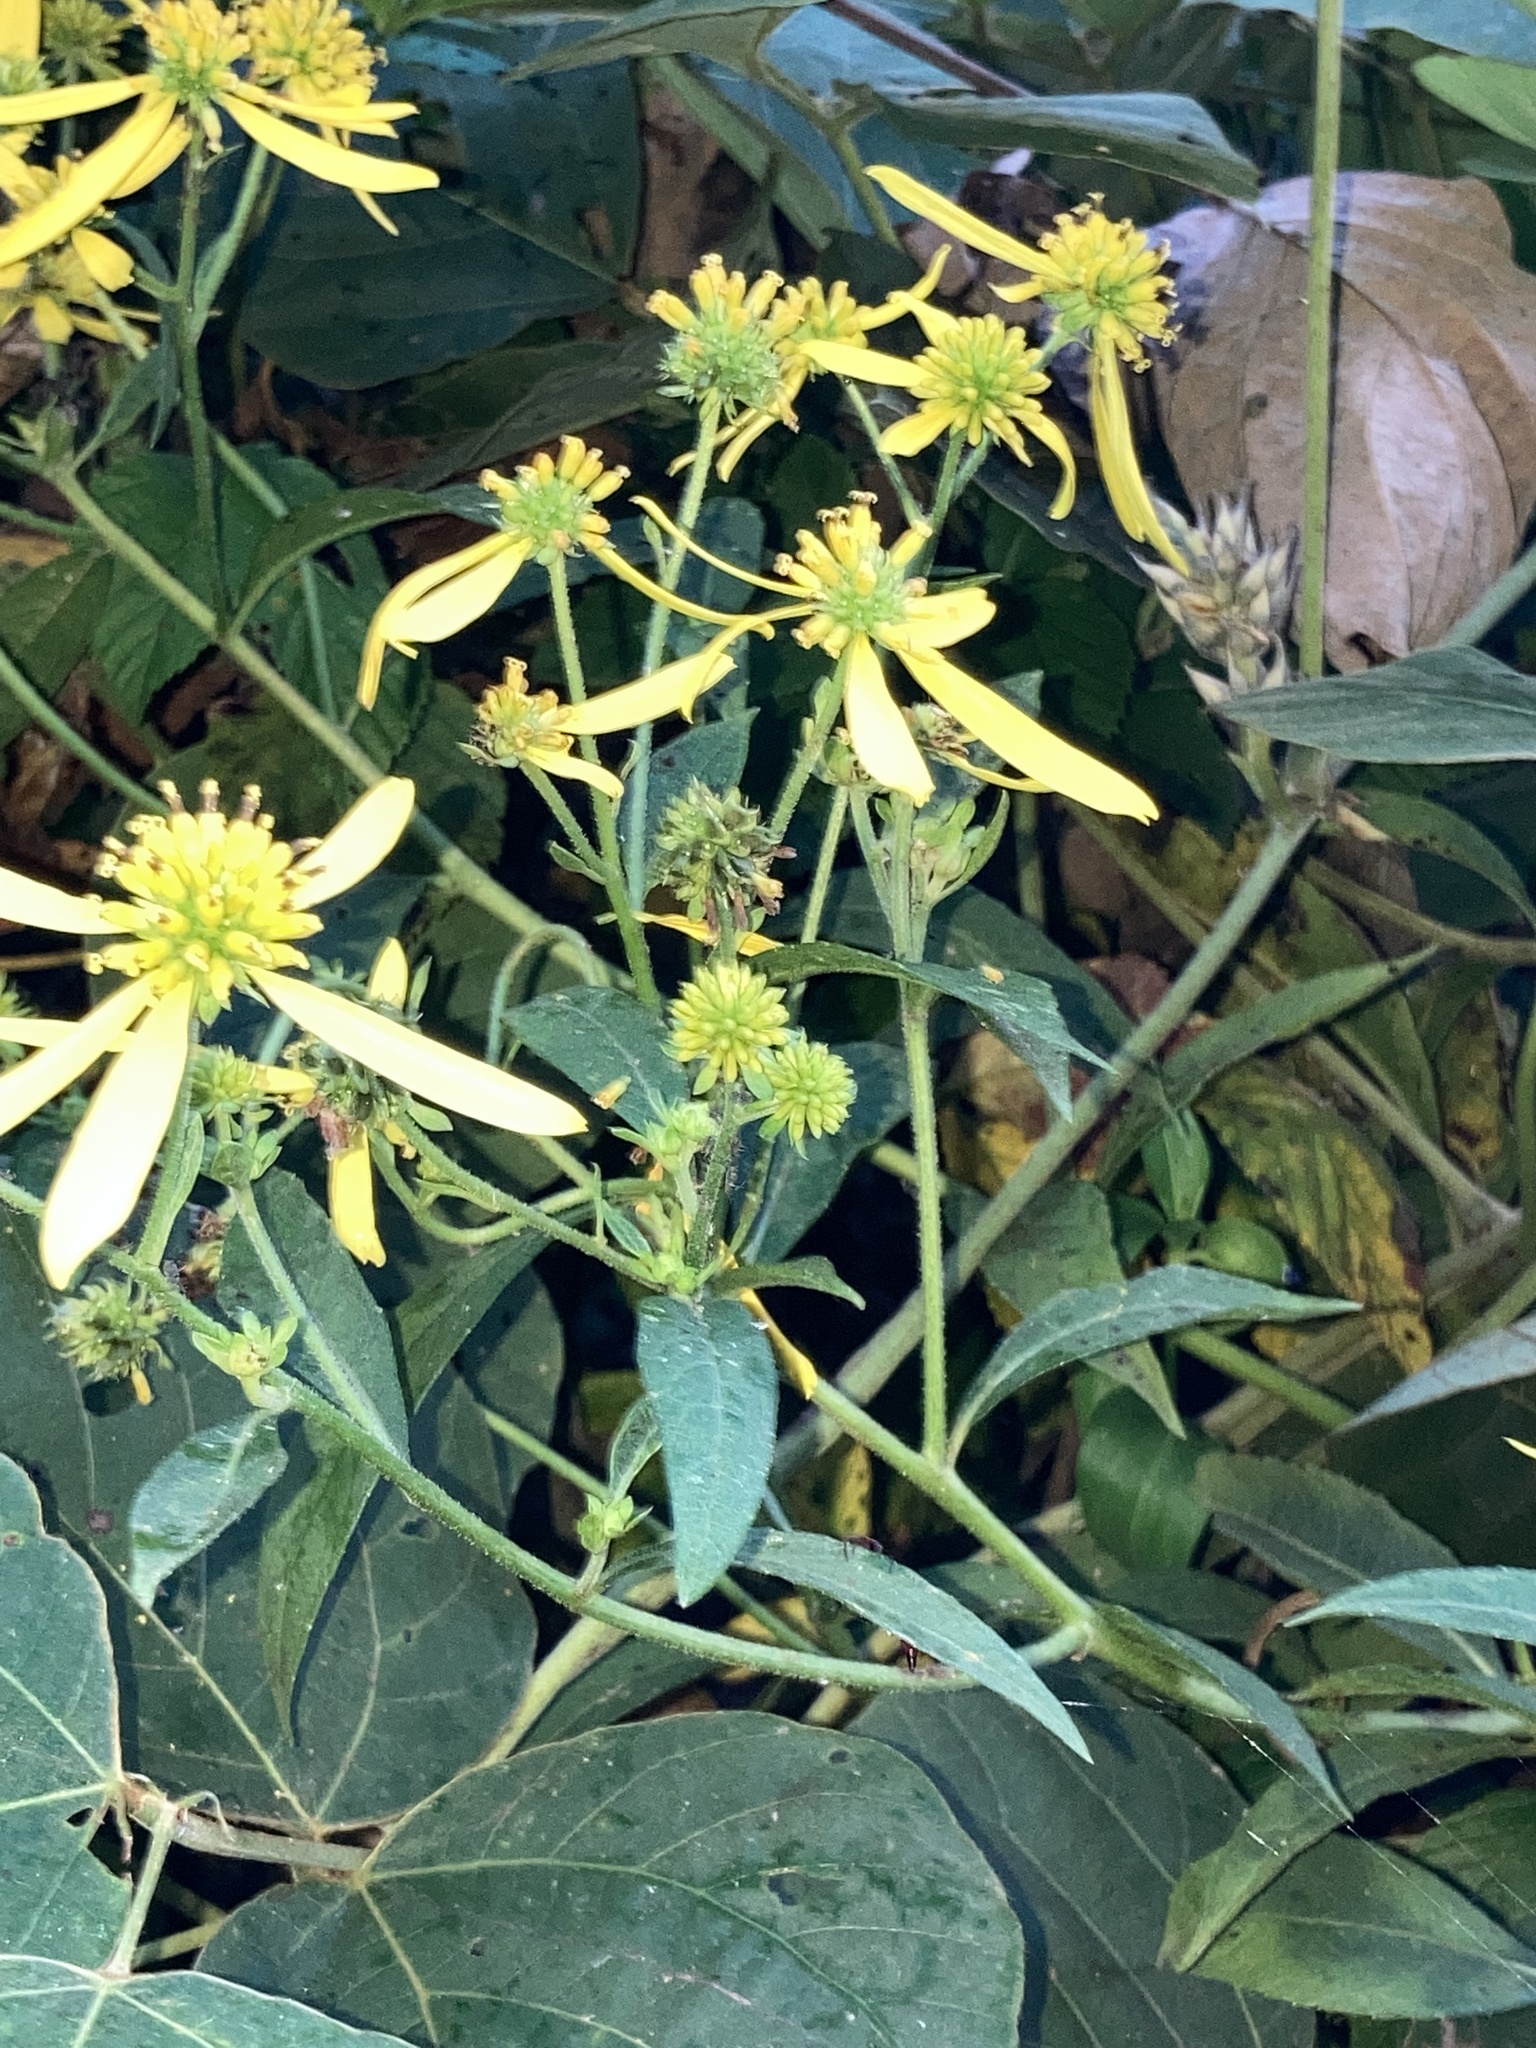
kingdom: Plantae
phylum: Tracheophyta
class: Magnoliopsida
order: Asterales
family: Asteraceae
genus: Verbesina
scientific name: Verbesina alternifolia
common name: Wingstem
